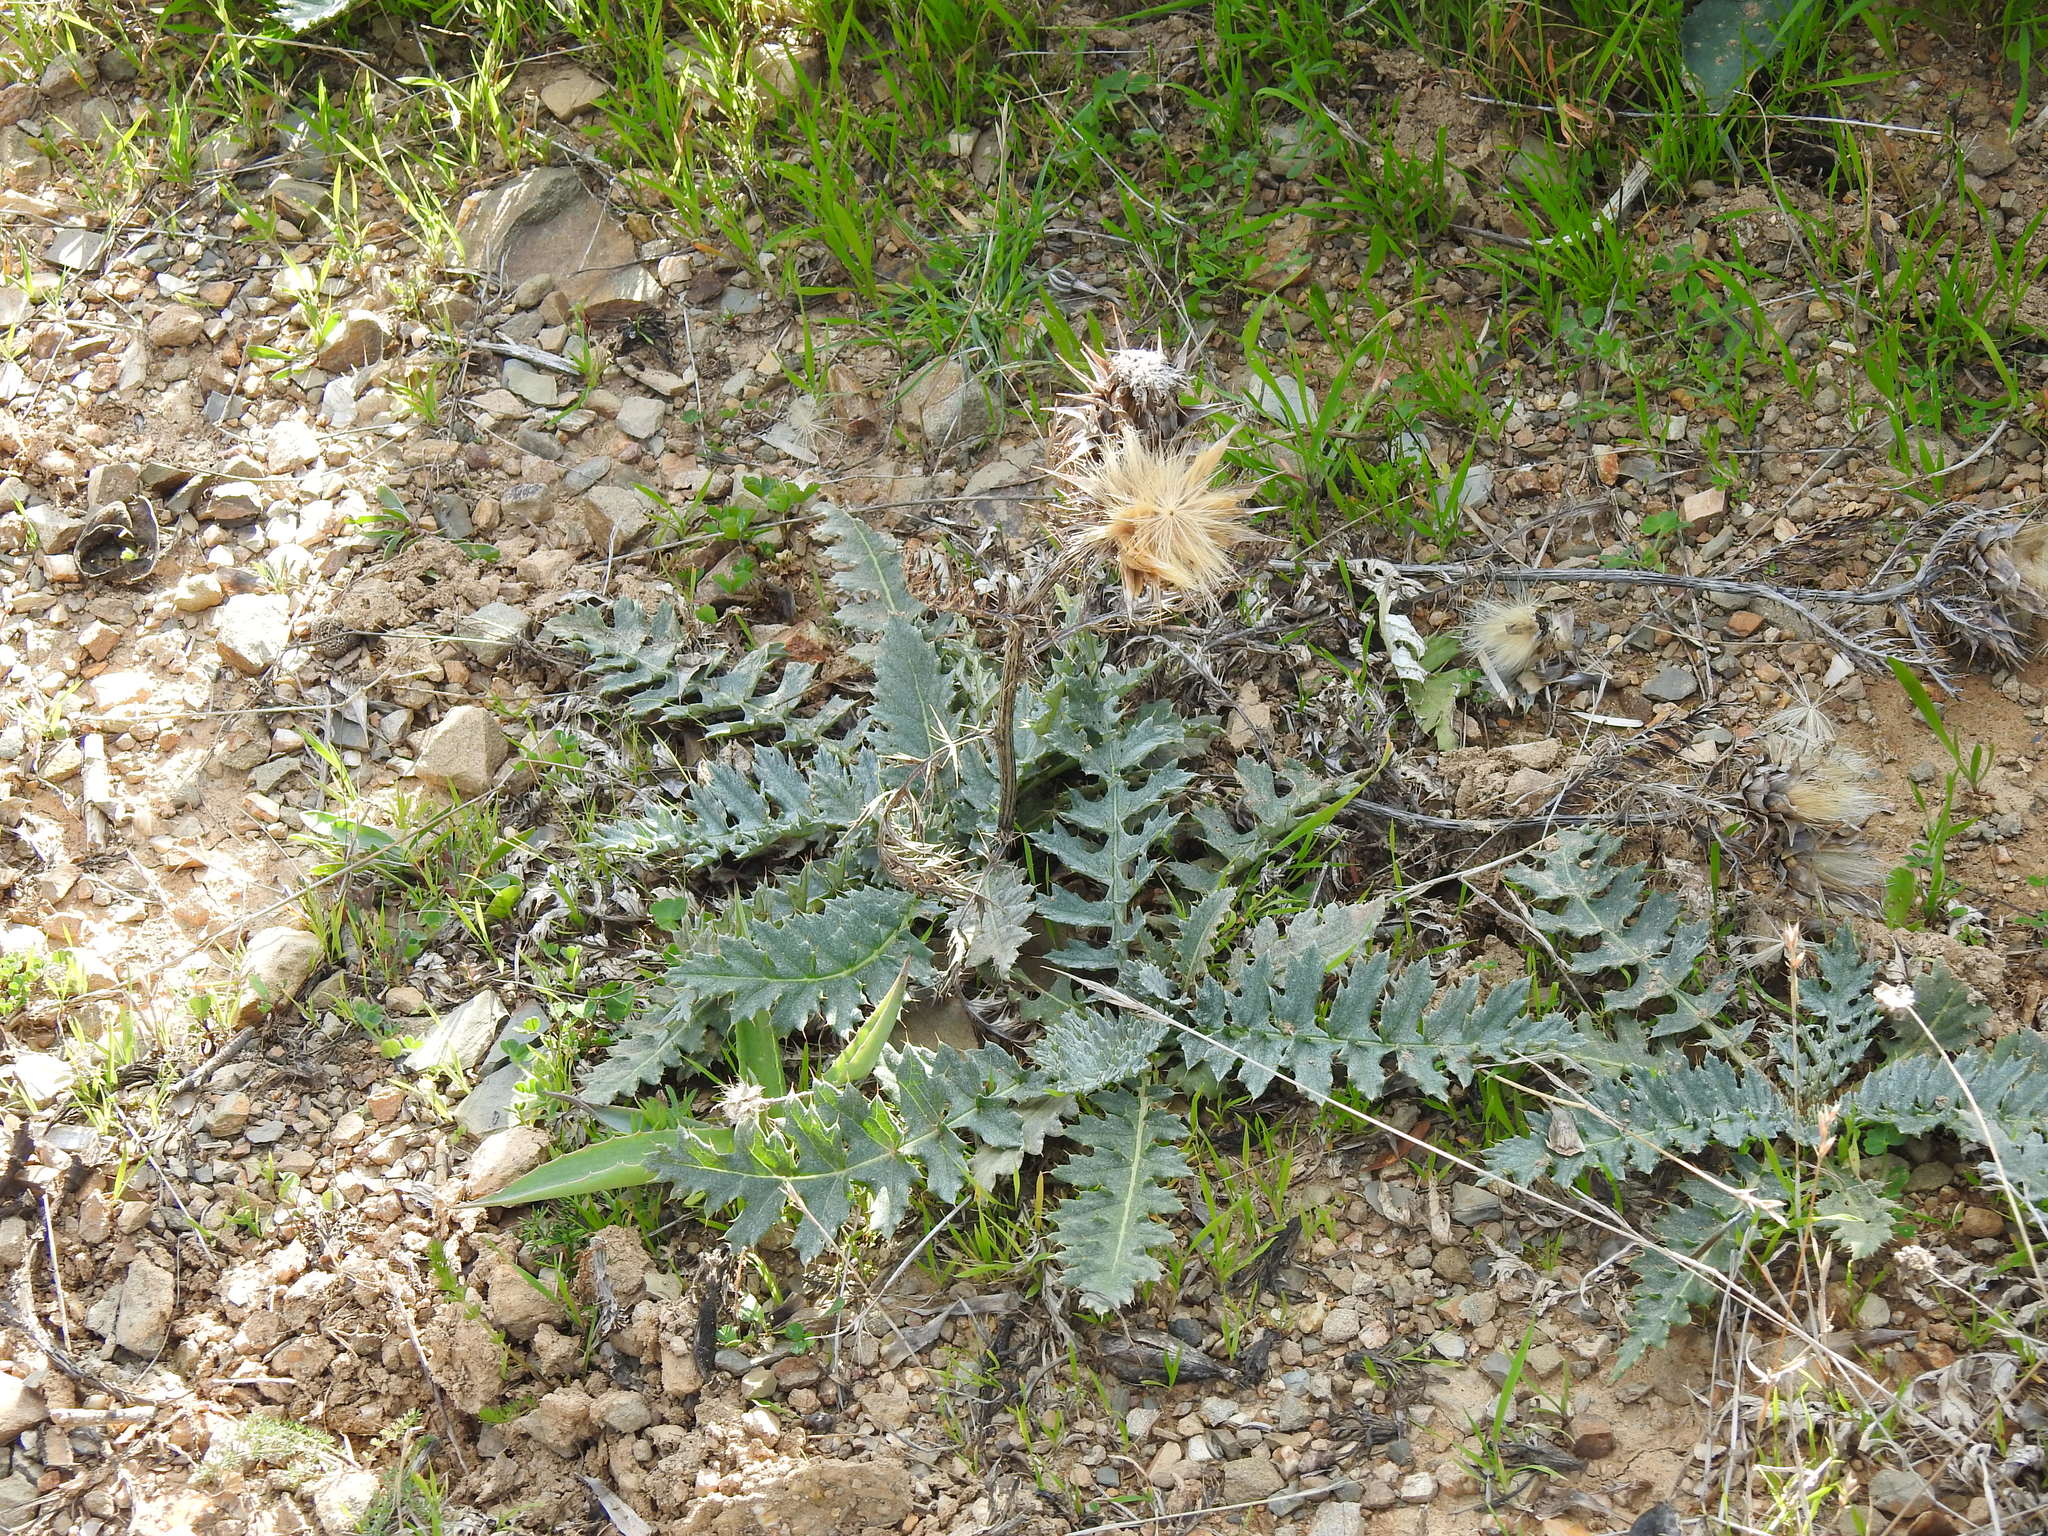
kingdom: Plantae
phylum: Tracheophyta
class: Magnoliopsida
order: Asterales
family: Asteraceae
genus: Cynara
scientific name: Cynara algarbiensis
